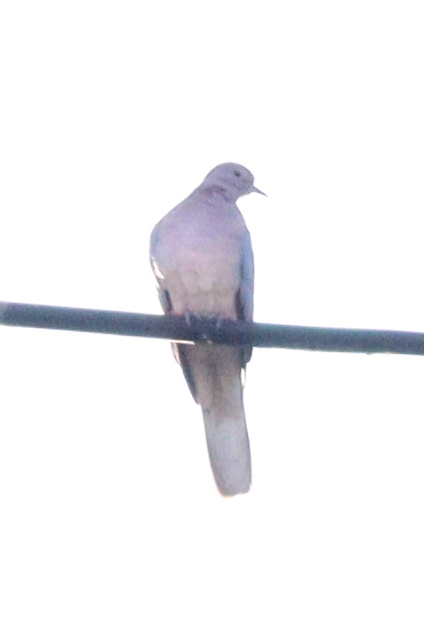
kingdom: Animalia
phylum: Chordata
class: Aves
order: Columbiformes
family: Columbidae
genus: Spilopelia
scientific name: Spilopelia senegalensis
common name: Laughing dove
